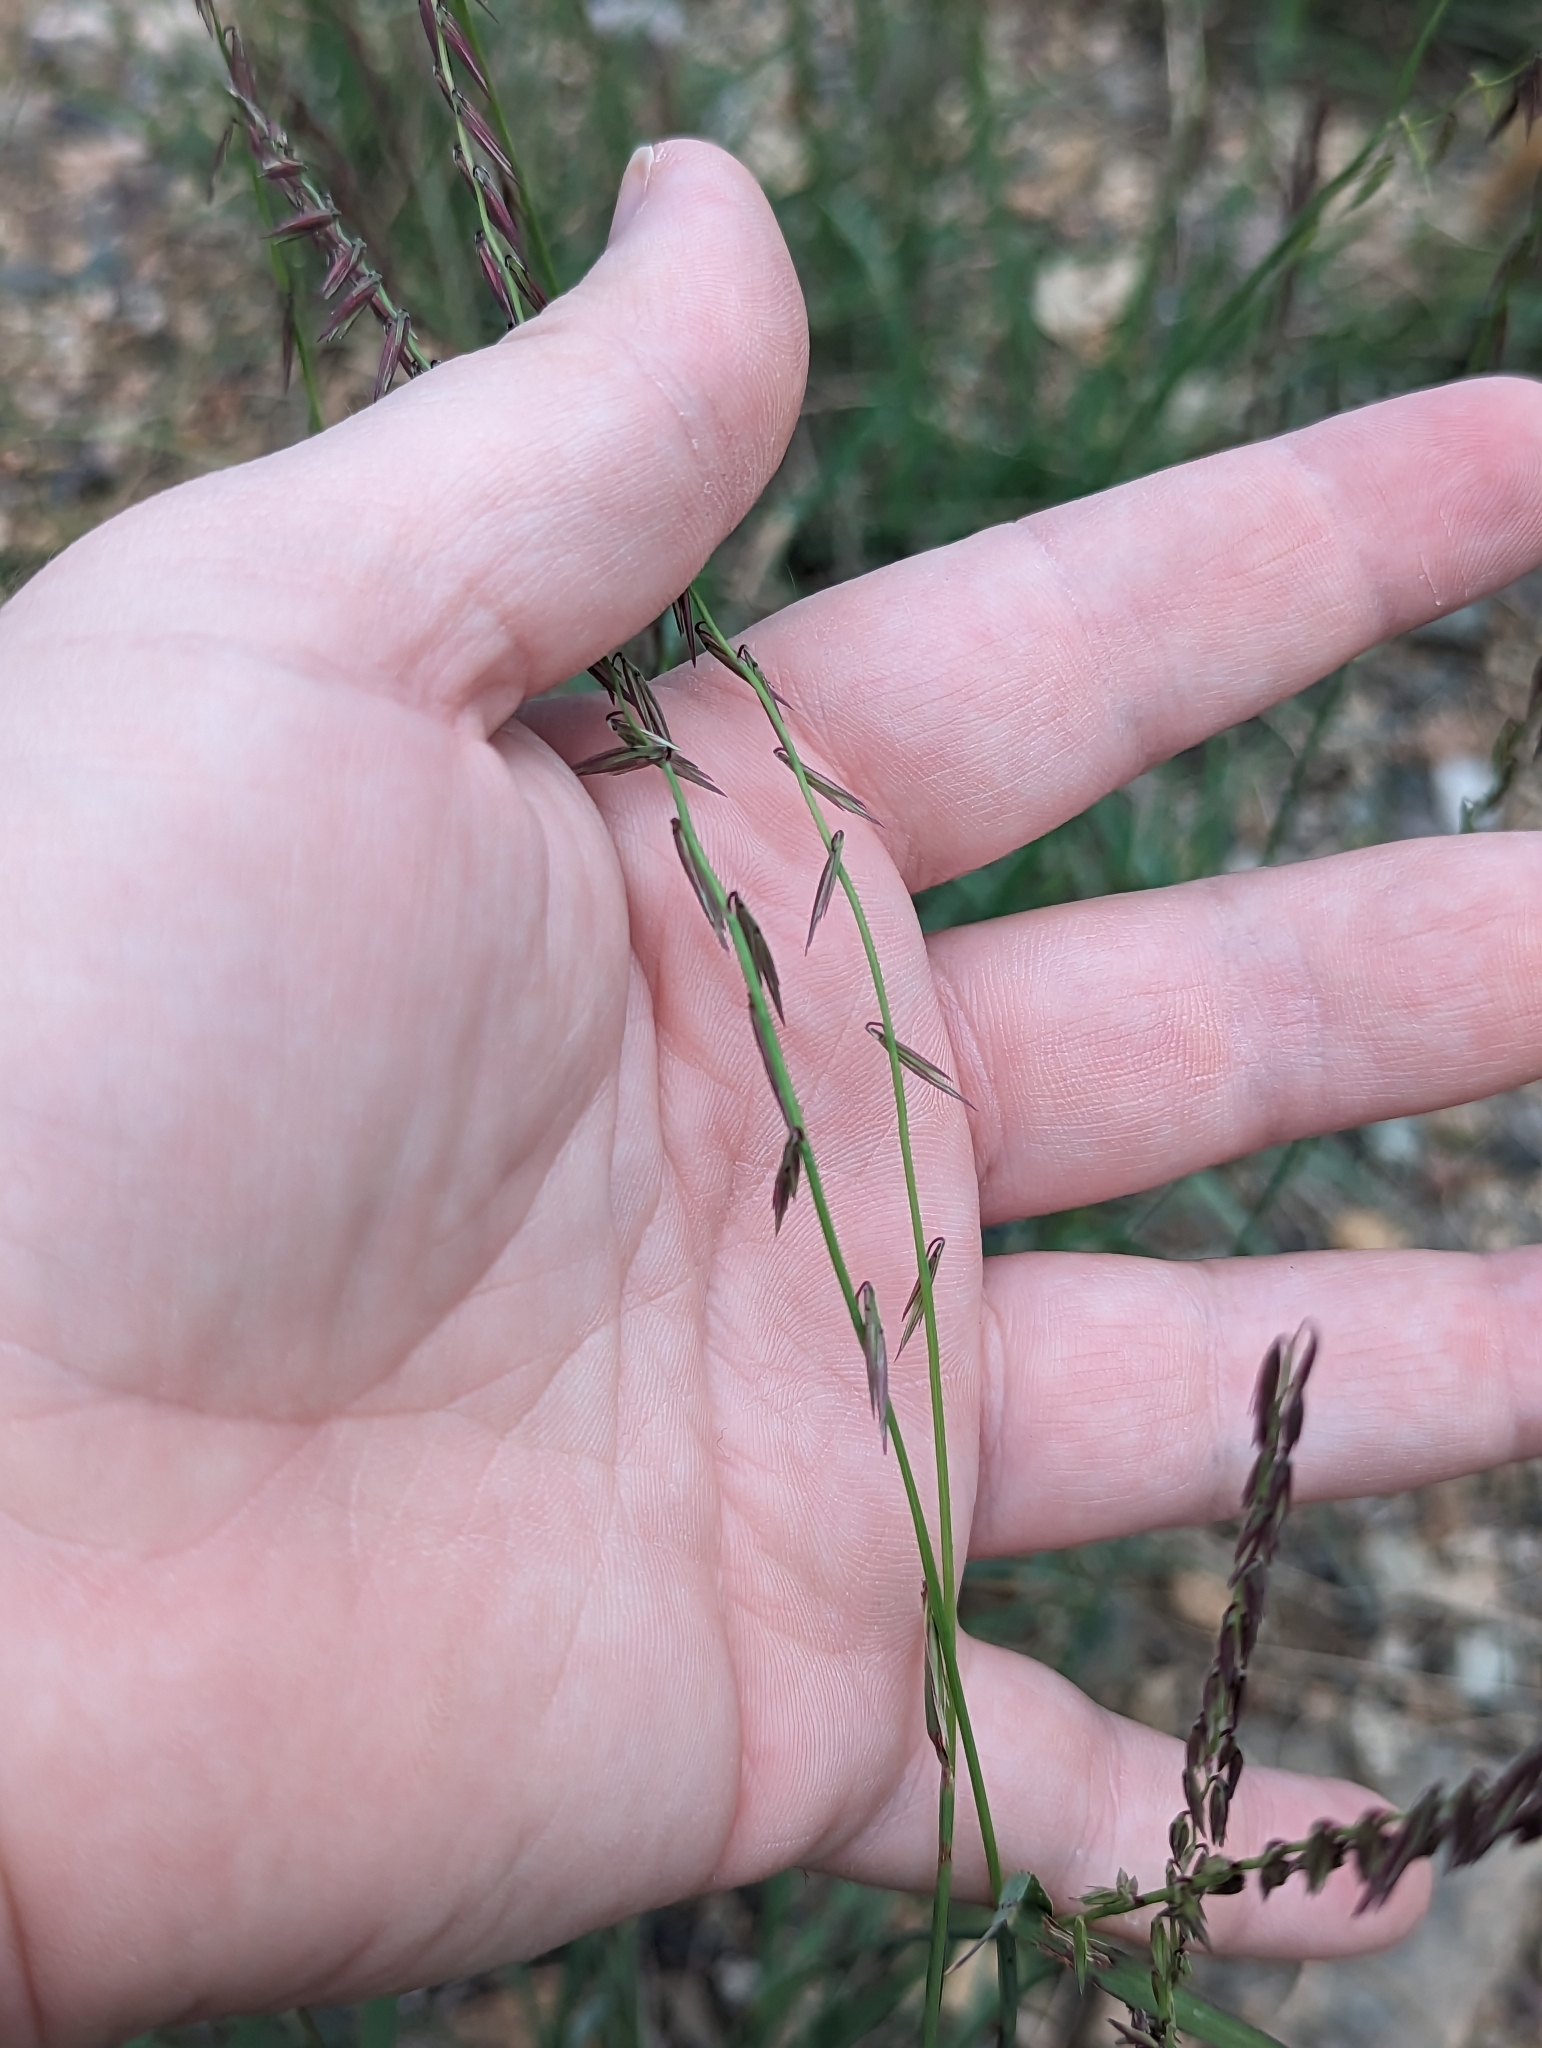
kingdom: Plantae
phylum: Tracheophyta
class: Liliopsida
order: Poales
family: Poaceae
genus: Bouteloua
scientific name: Bouteloua curtipendula
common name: Side-oats grama
